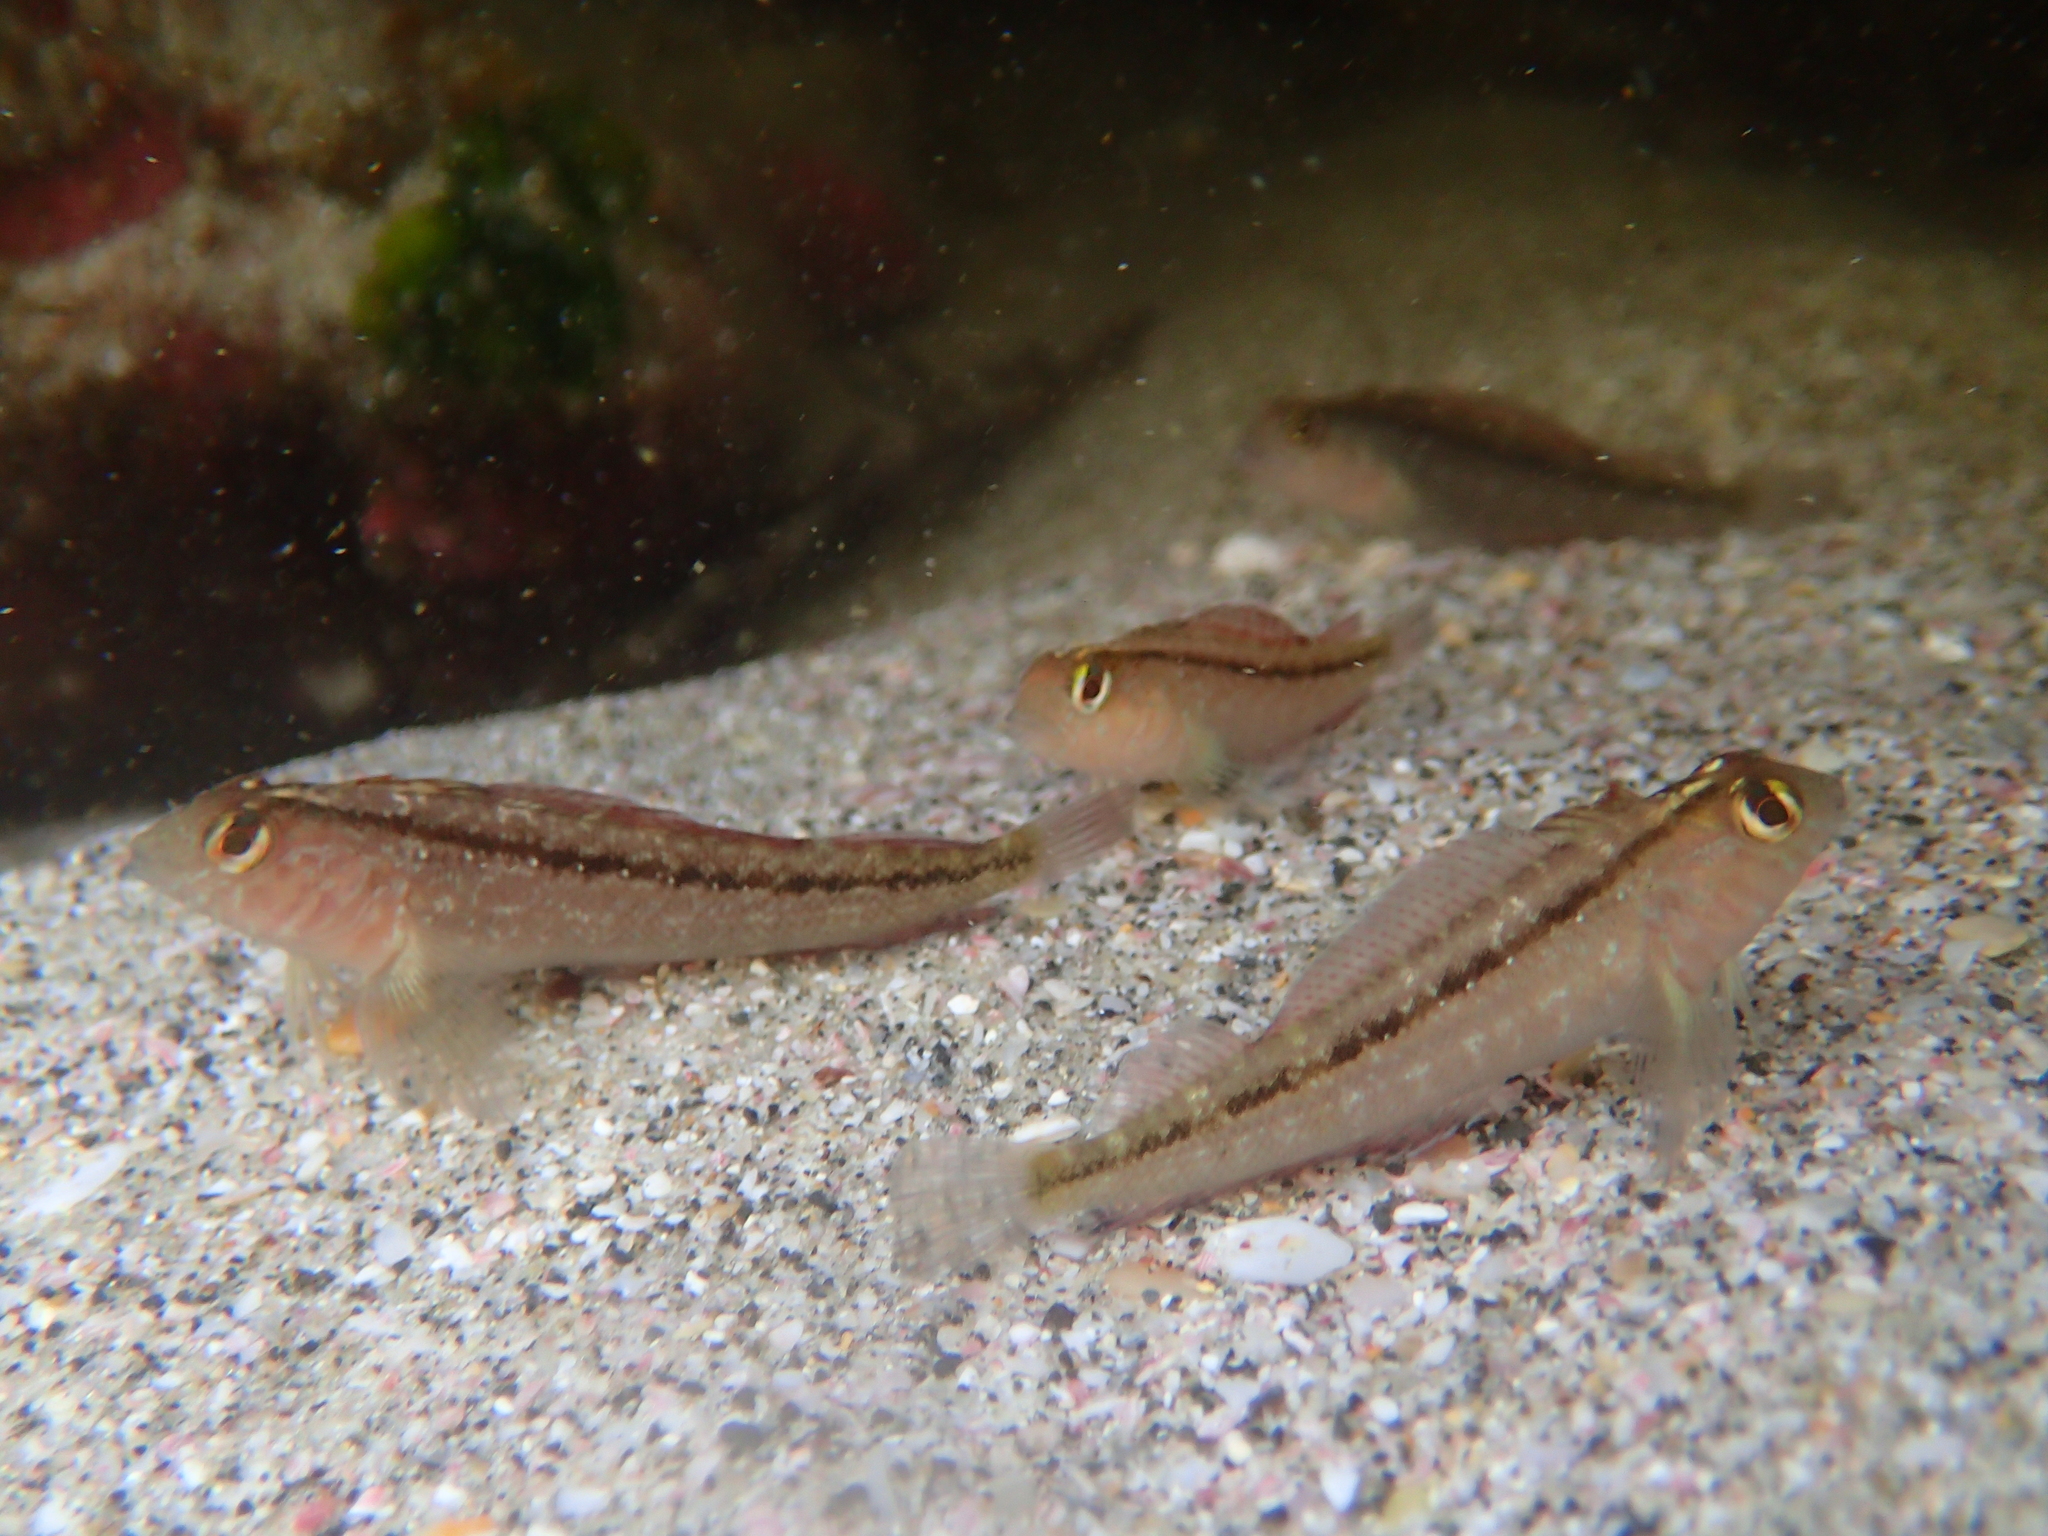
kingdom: Animalia
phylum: Chordata
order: Perciformes
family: Tripterygiidae
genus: Forsterygion
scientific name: Forsterygion lapillum
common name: Common triplefin
